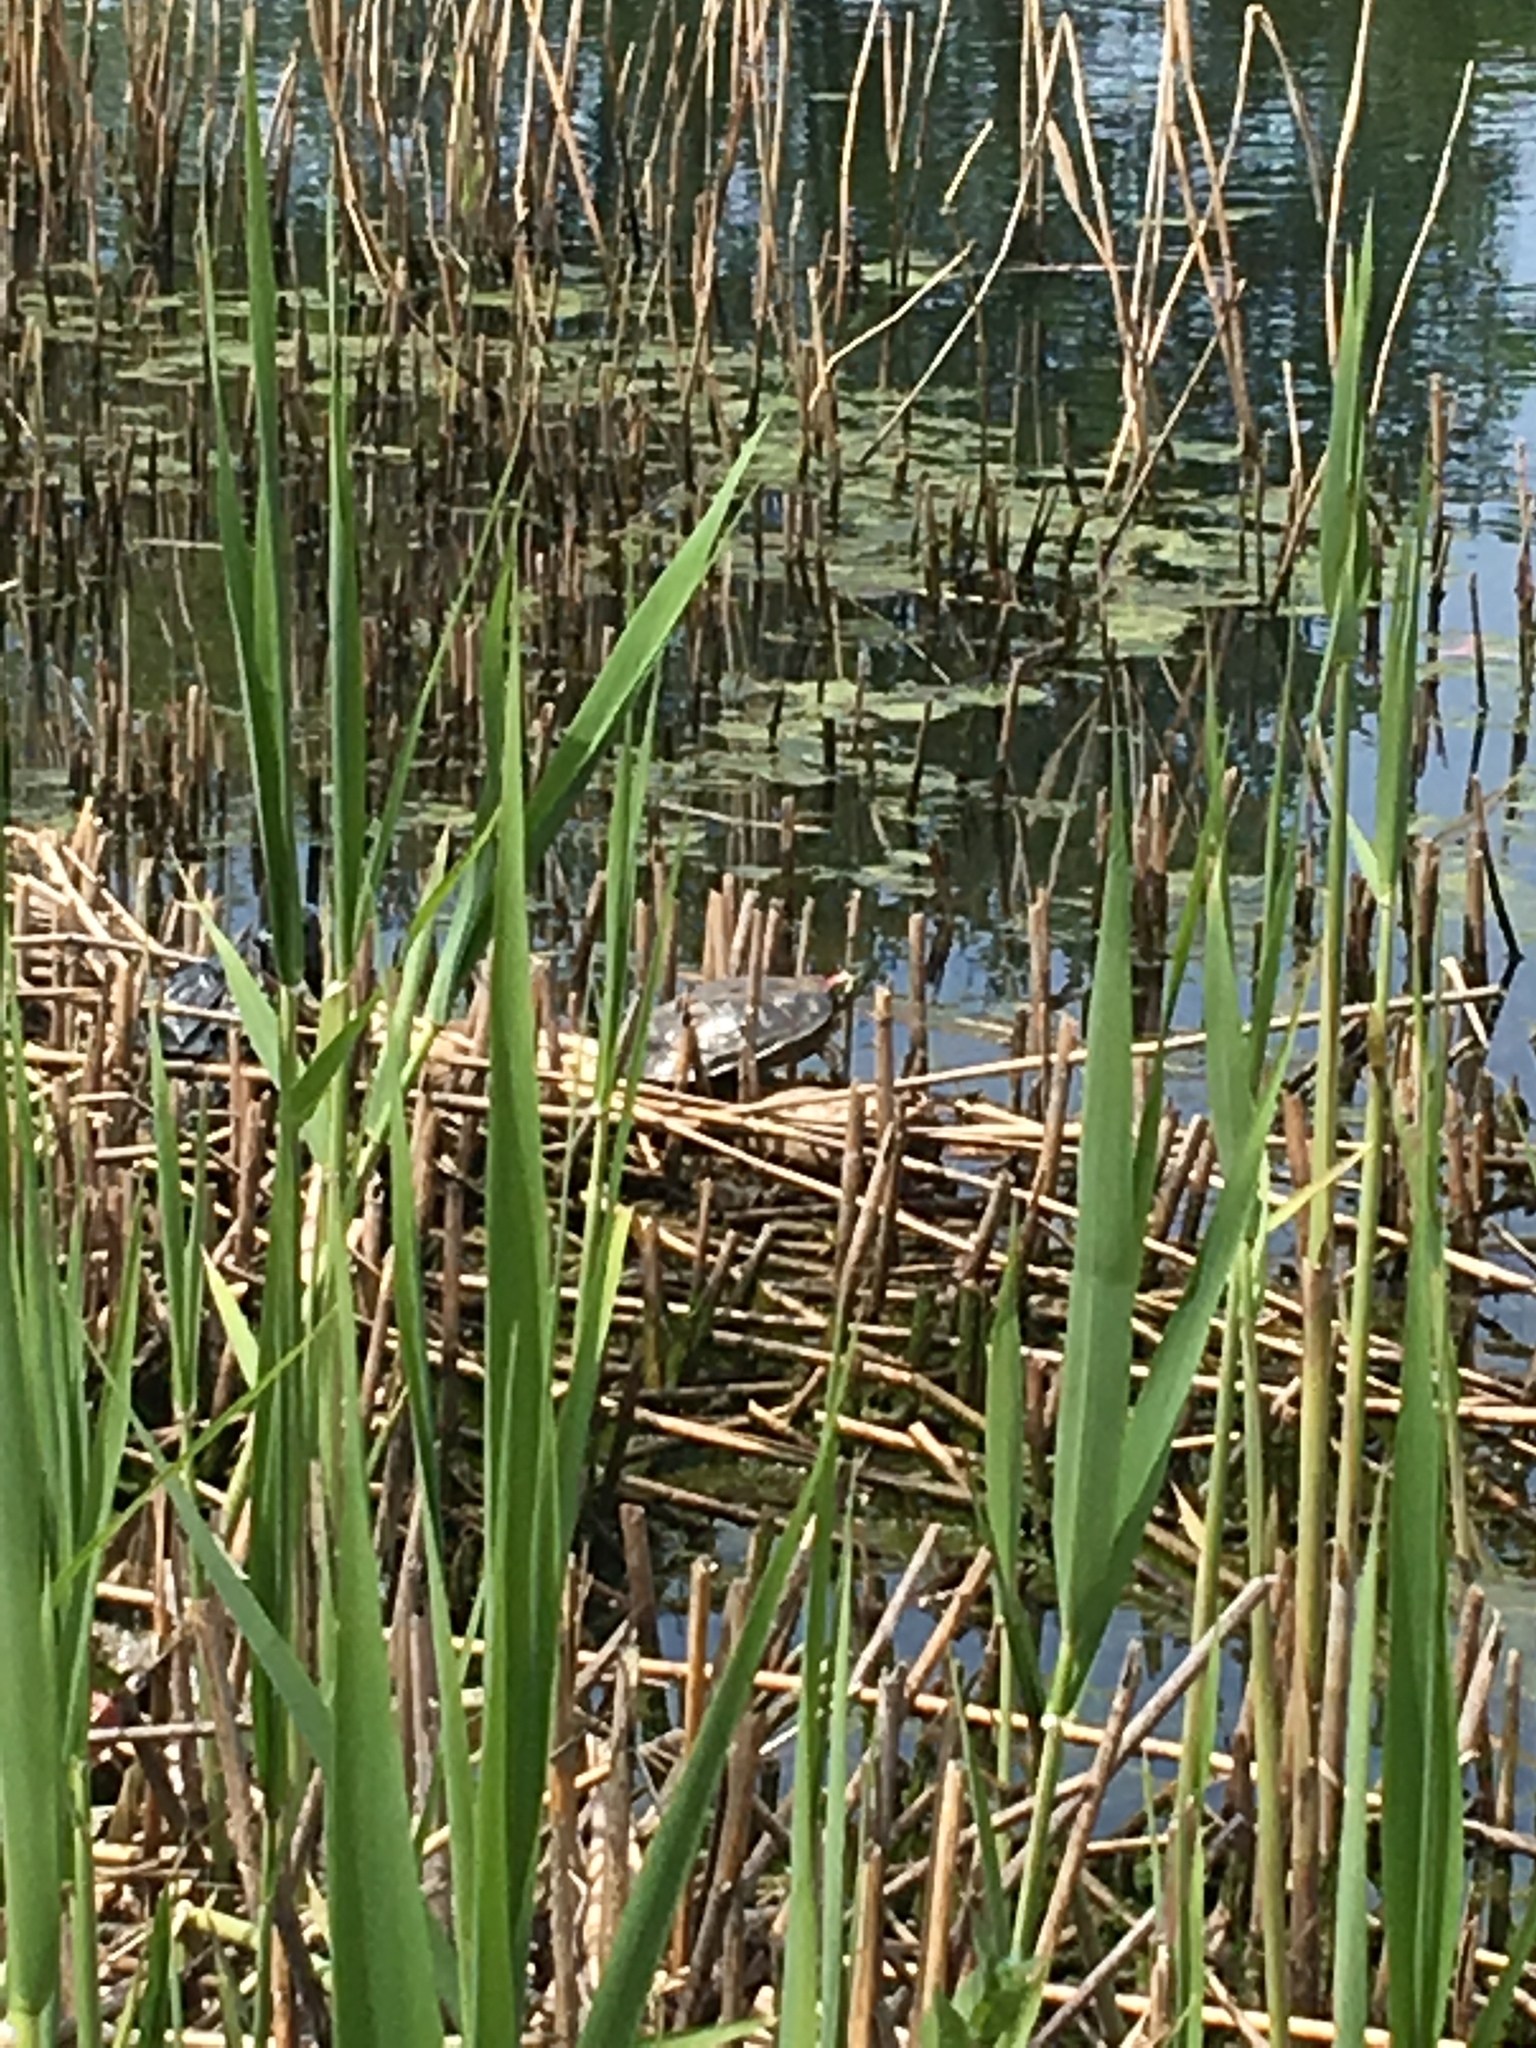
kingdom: Animalia
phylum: Chordata
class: Testudines
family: Emydidae
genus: Trachemys
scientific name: Trachemys scripta
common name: Slider
